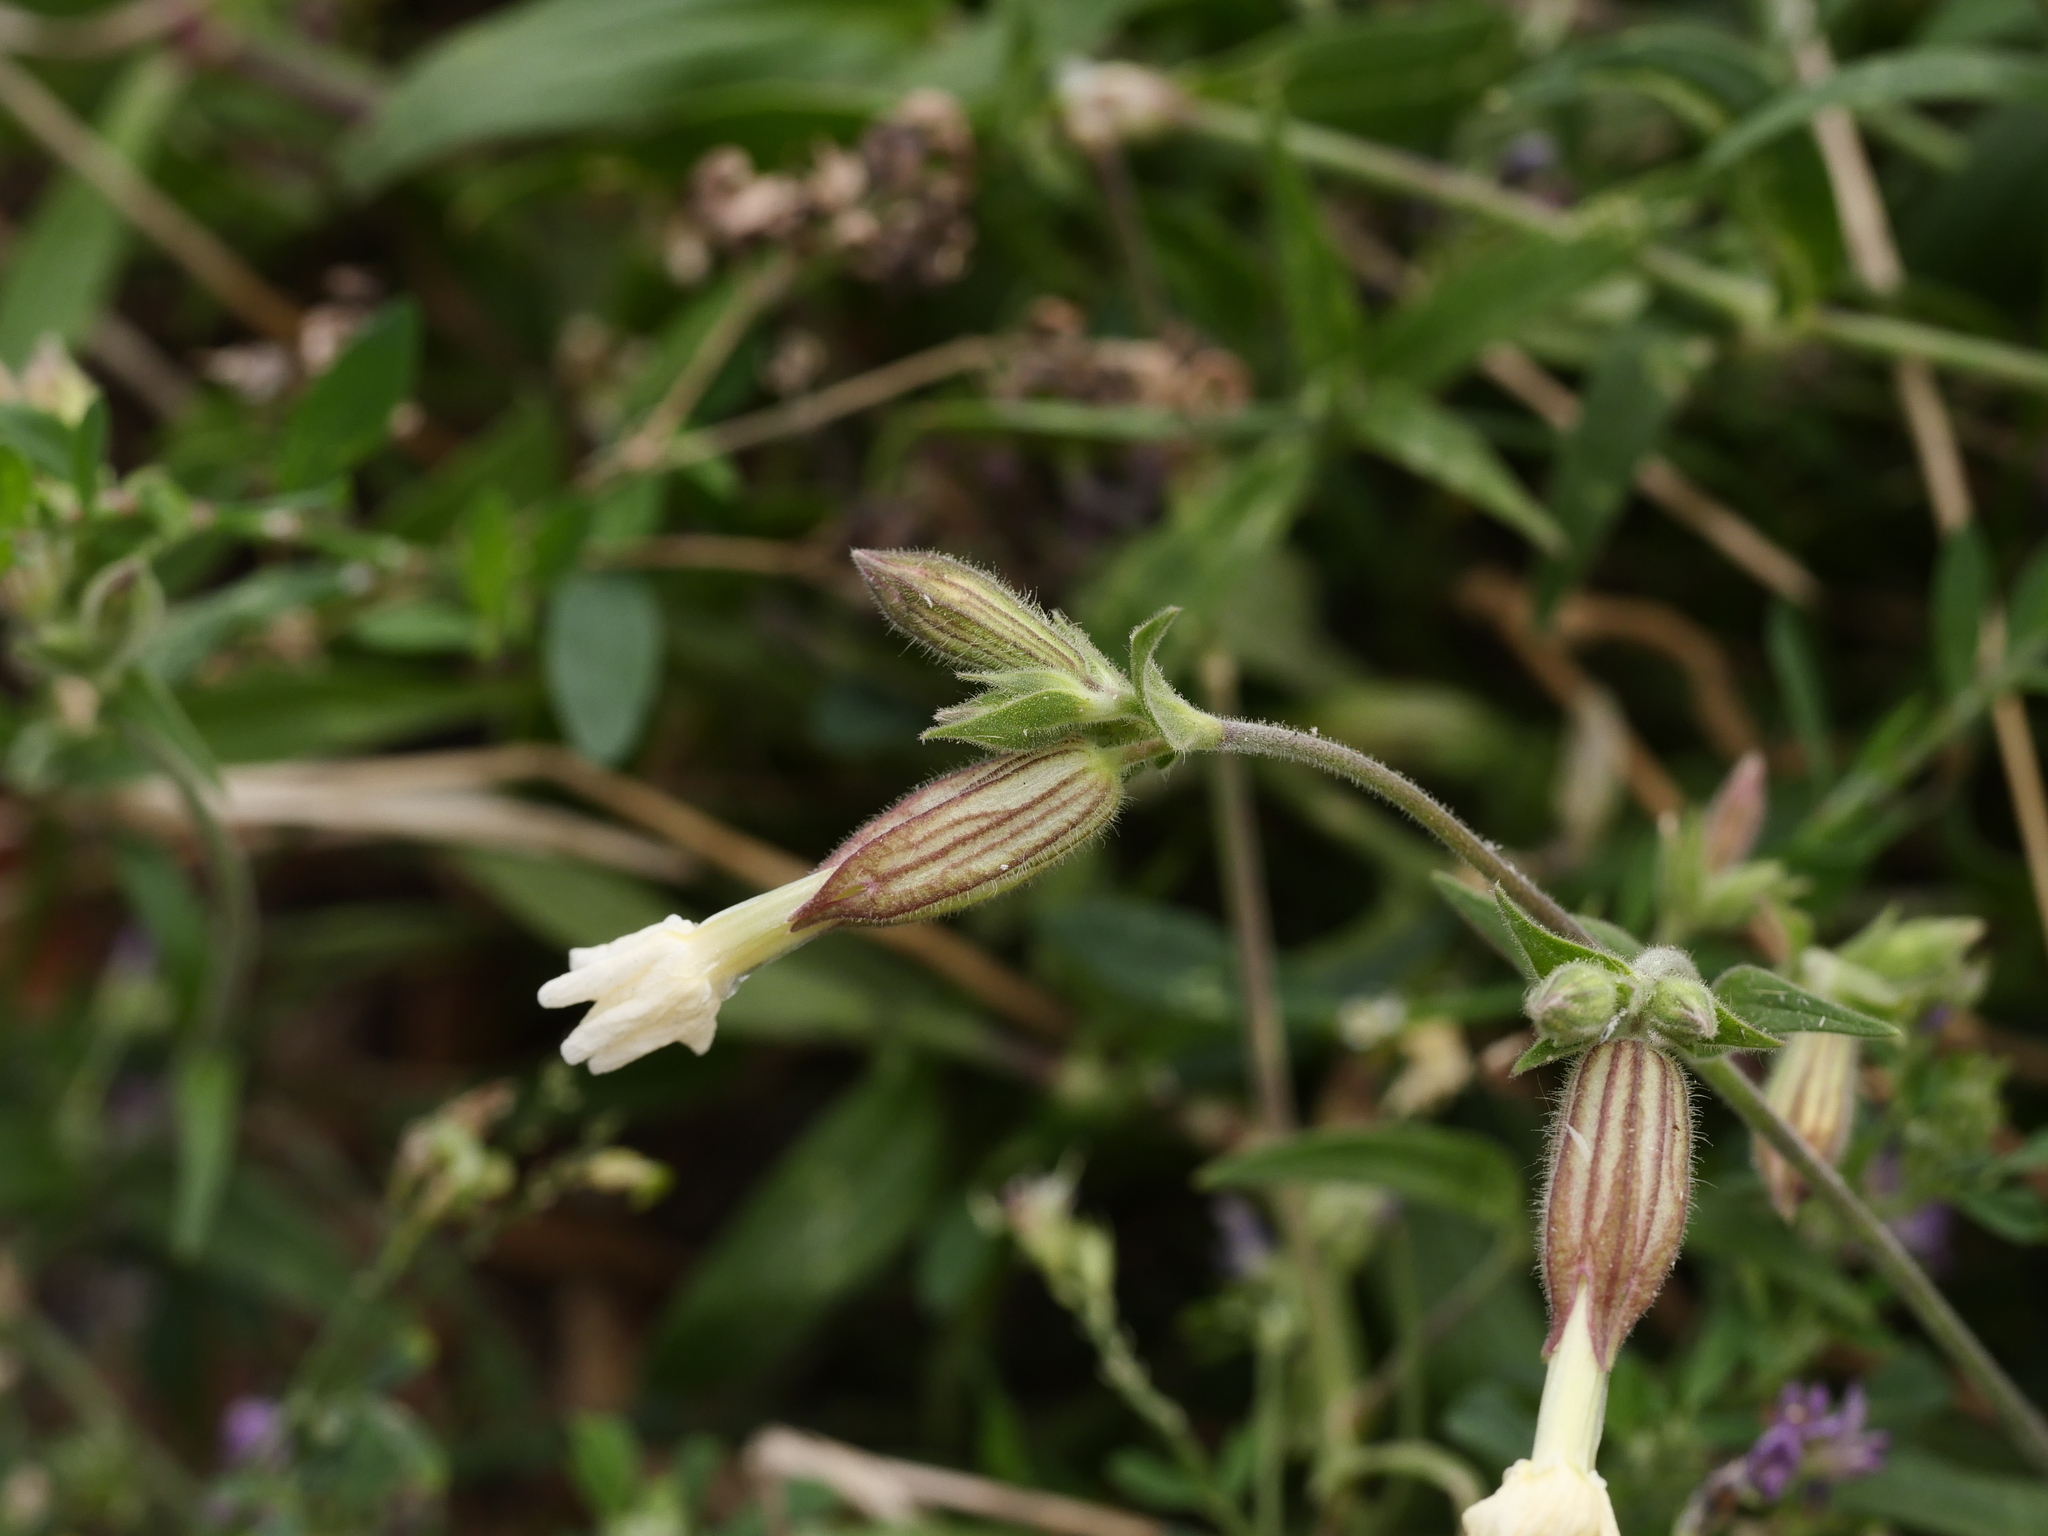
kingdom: Plantae
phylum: Tracheophyta
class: Magnoliopsida
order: Caryophyllales
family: Caryophyllaceae
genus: Silene
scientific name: Silene latifolia
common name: White campion
